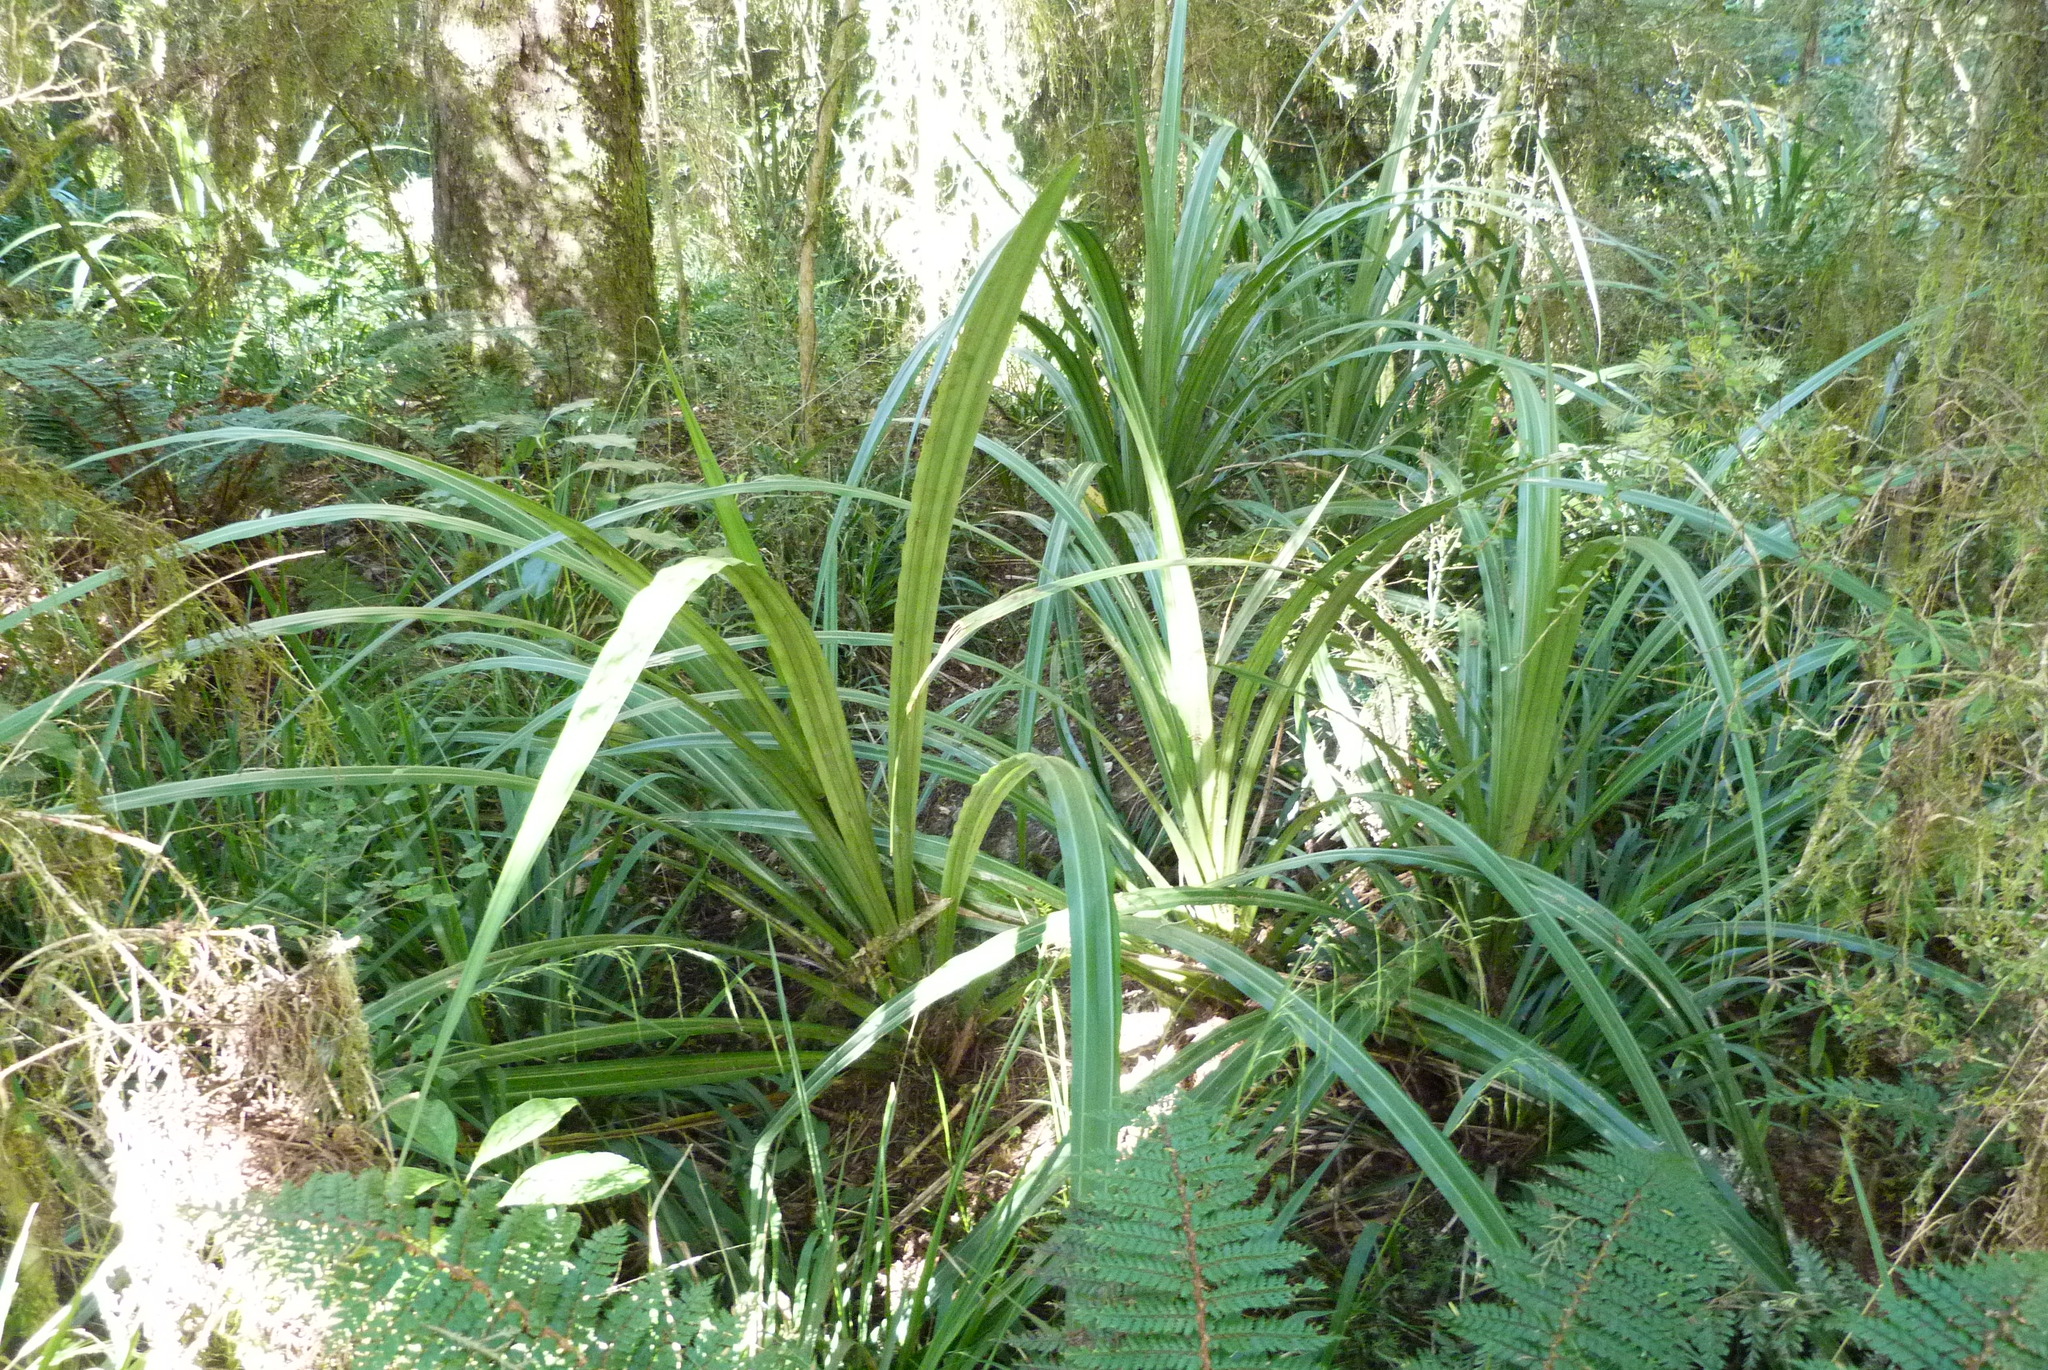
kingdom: Plantae
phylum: Tracheophyta
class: Liliopsida
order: Asparagales
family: Asteliaceae
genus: Astelia
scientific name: Astelia grandis
